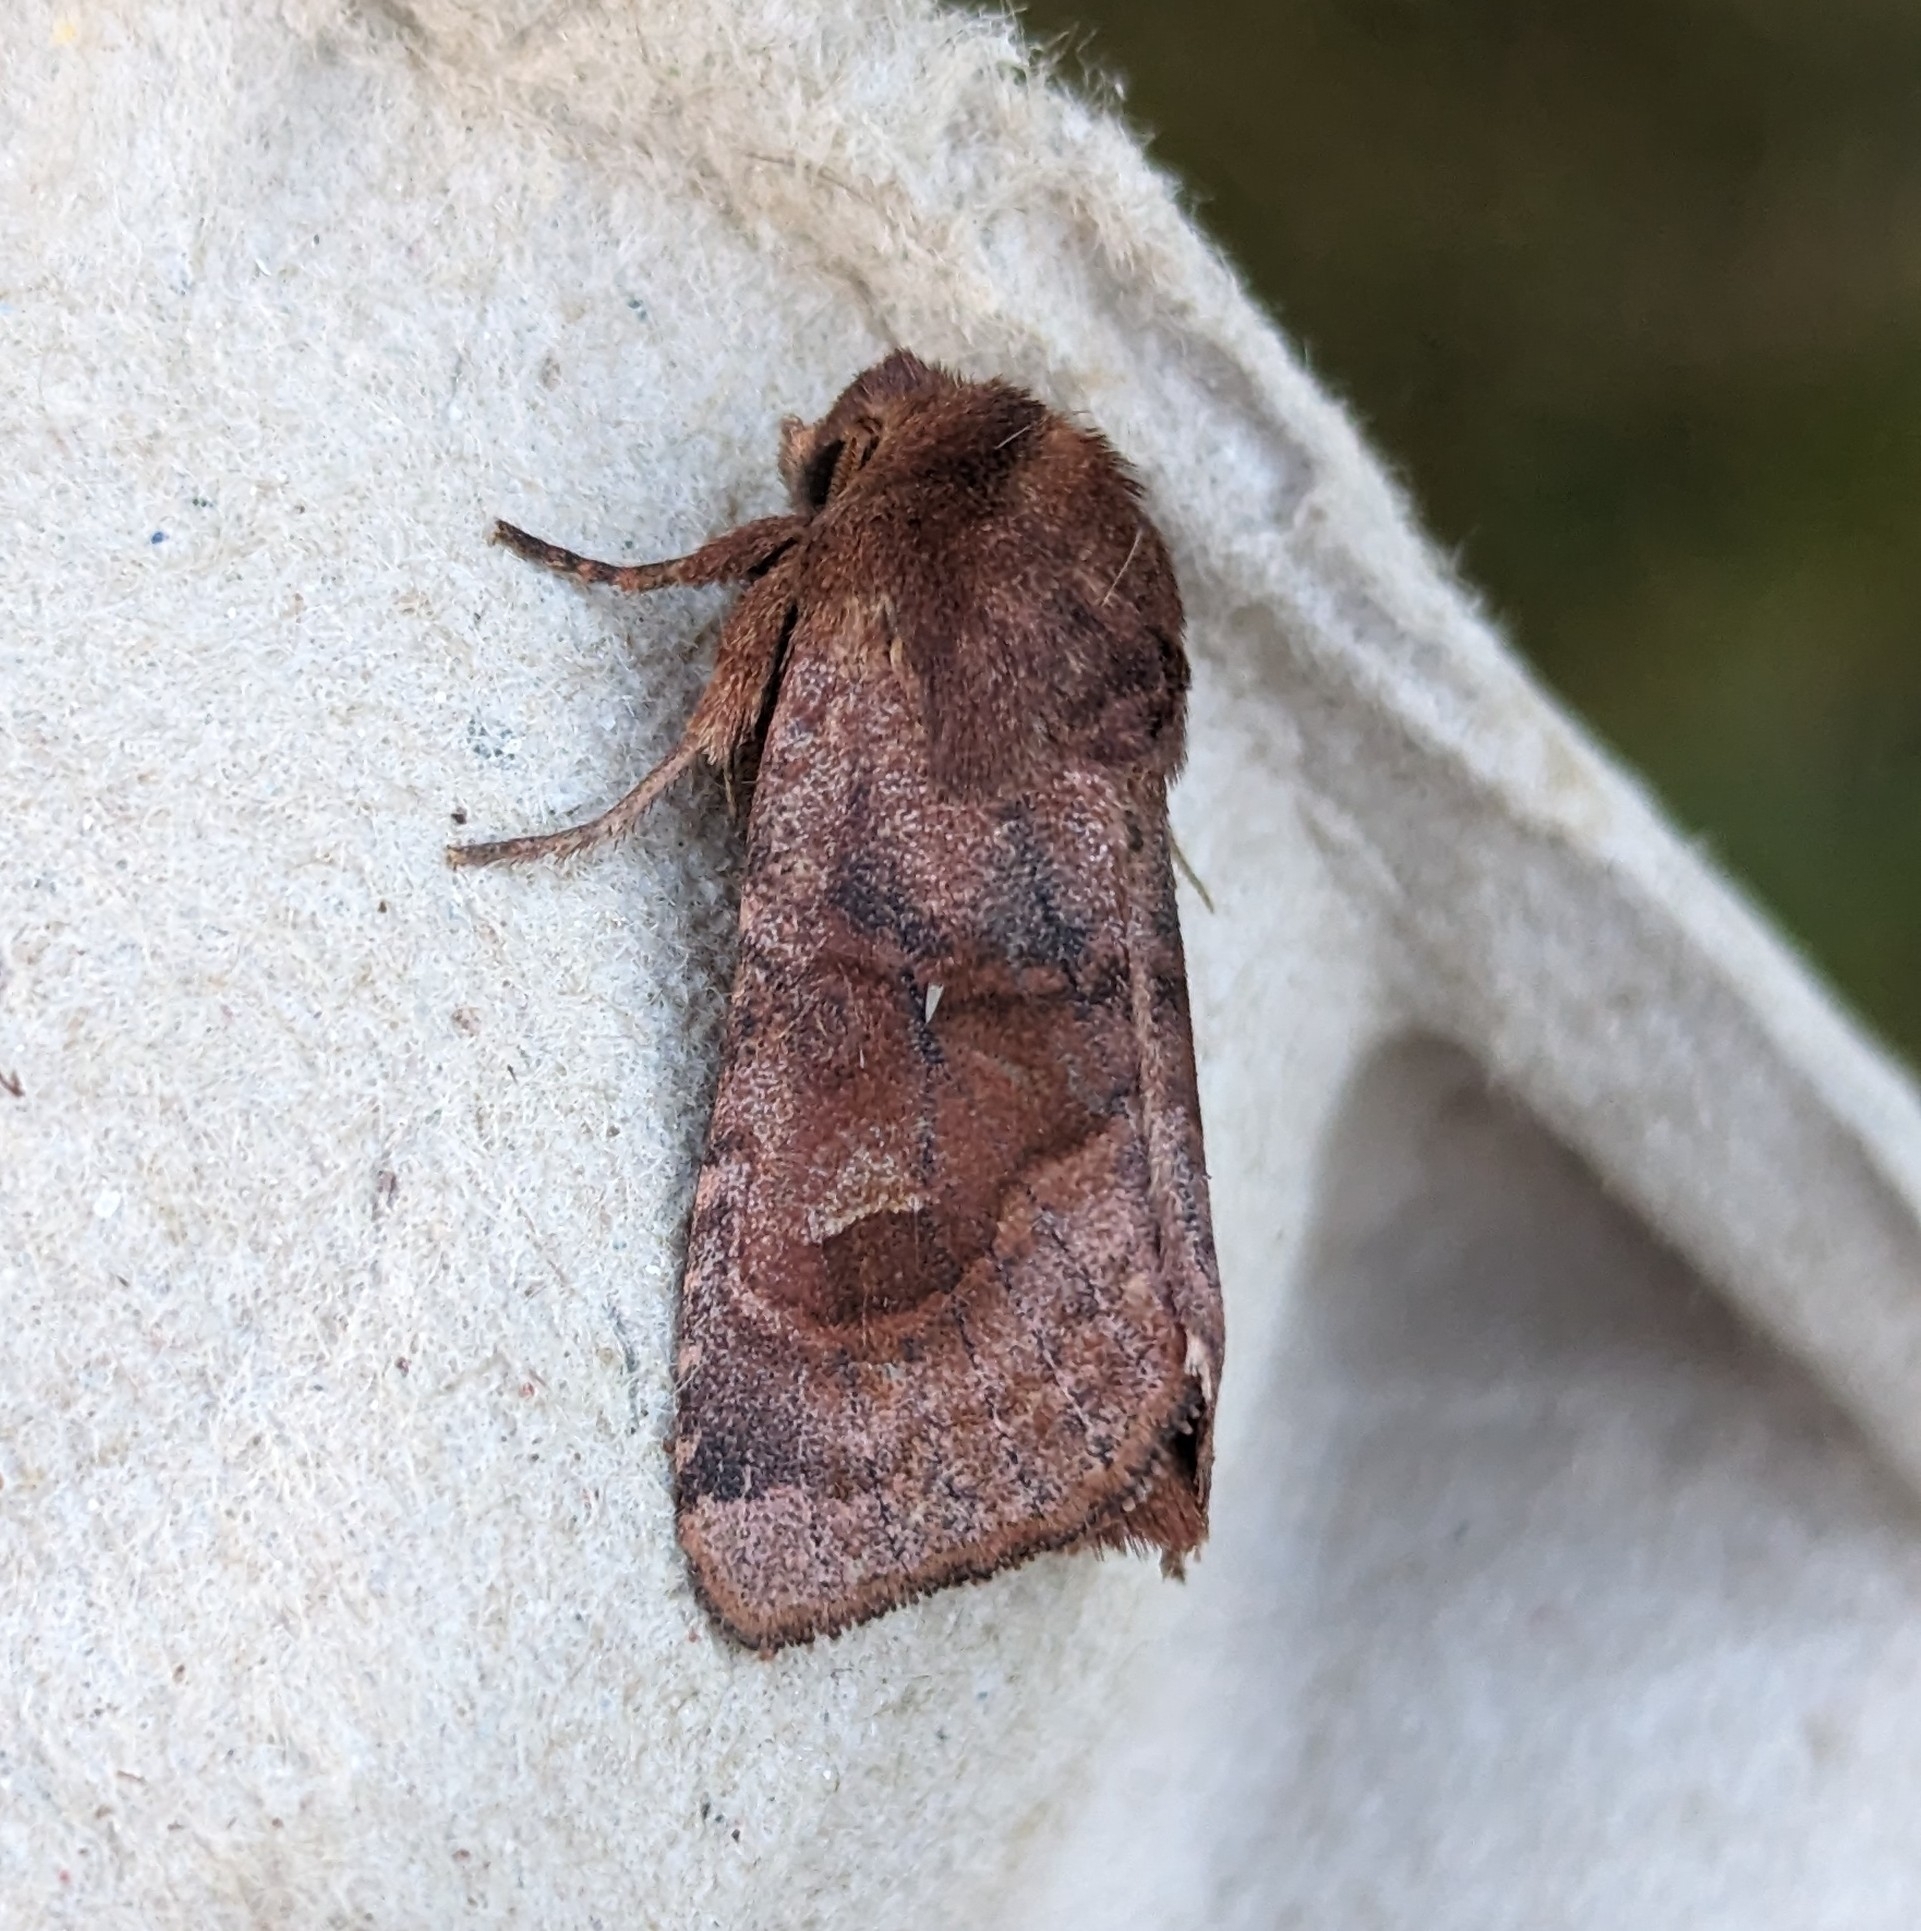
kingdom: Animalia
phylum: Arthropoda
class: Insecta
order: Lepidoptera
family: Noctuidae
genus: Nephelodes
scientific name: Nephelodes minians
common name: Bronzed cutworm
